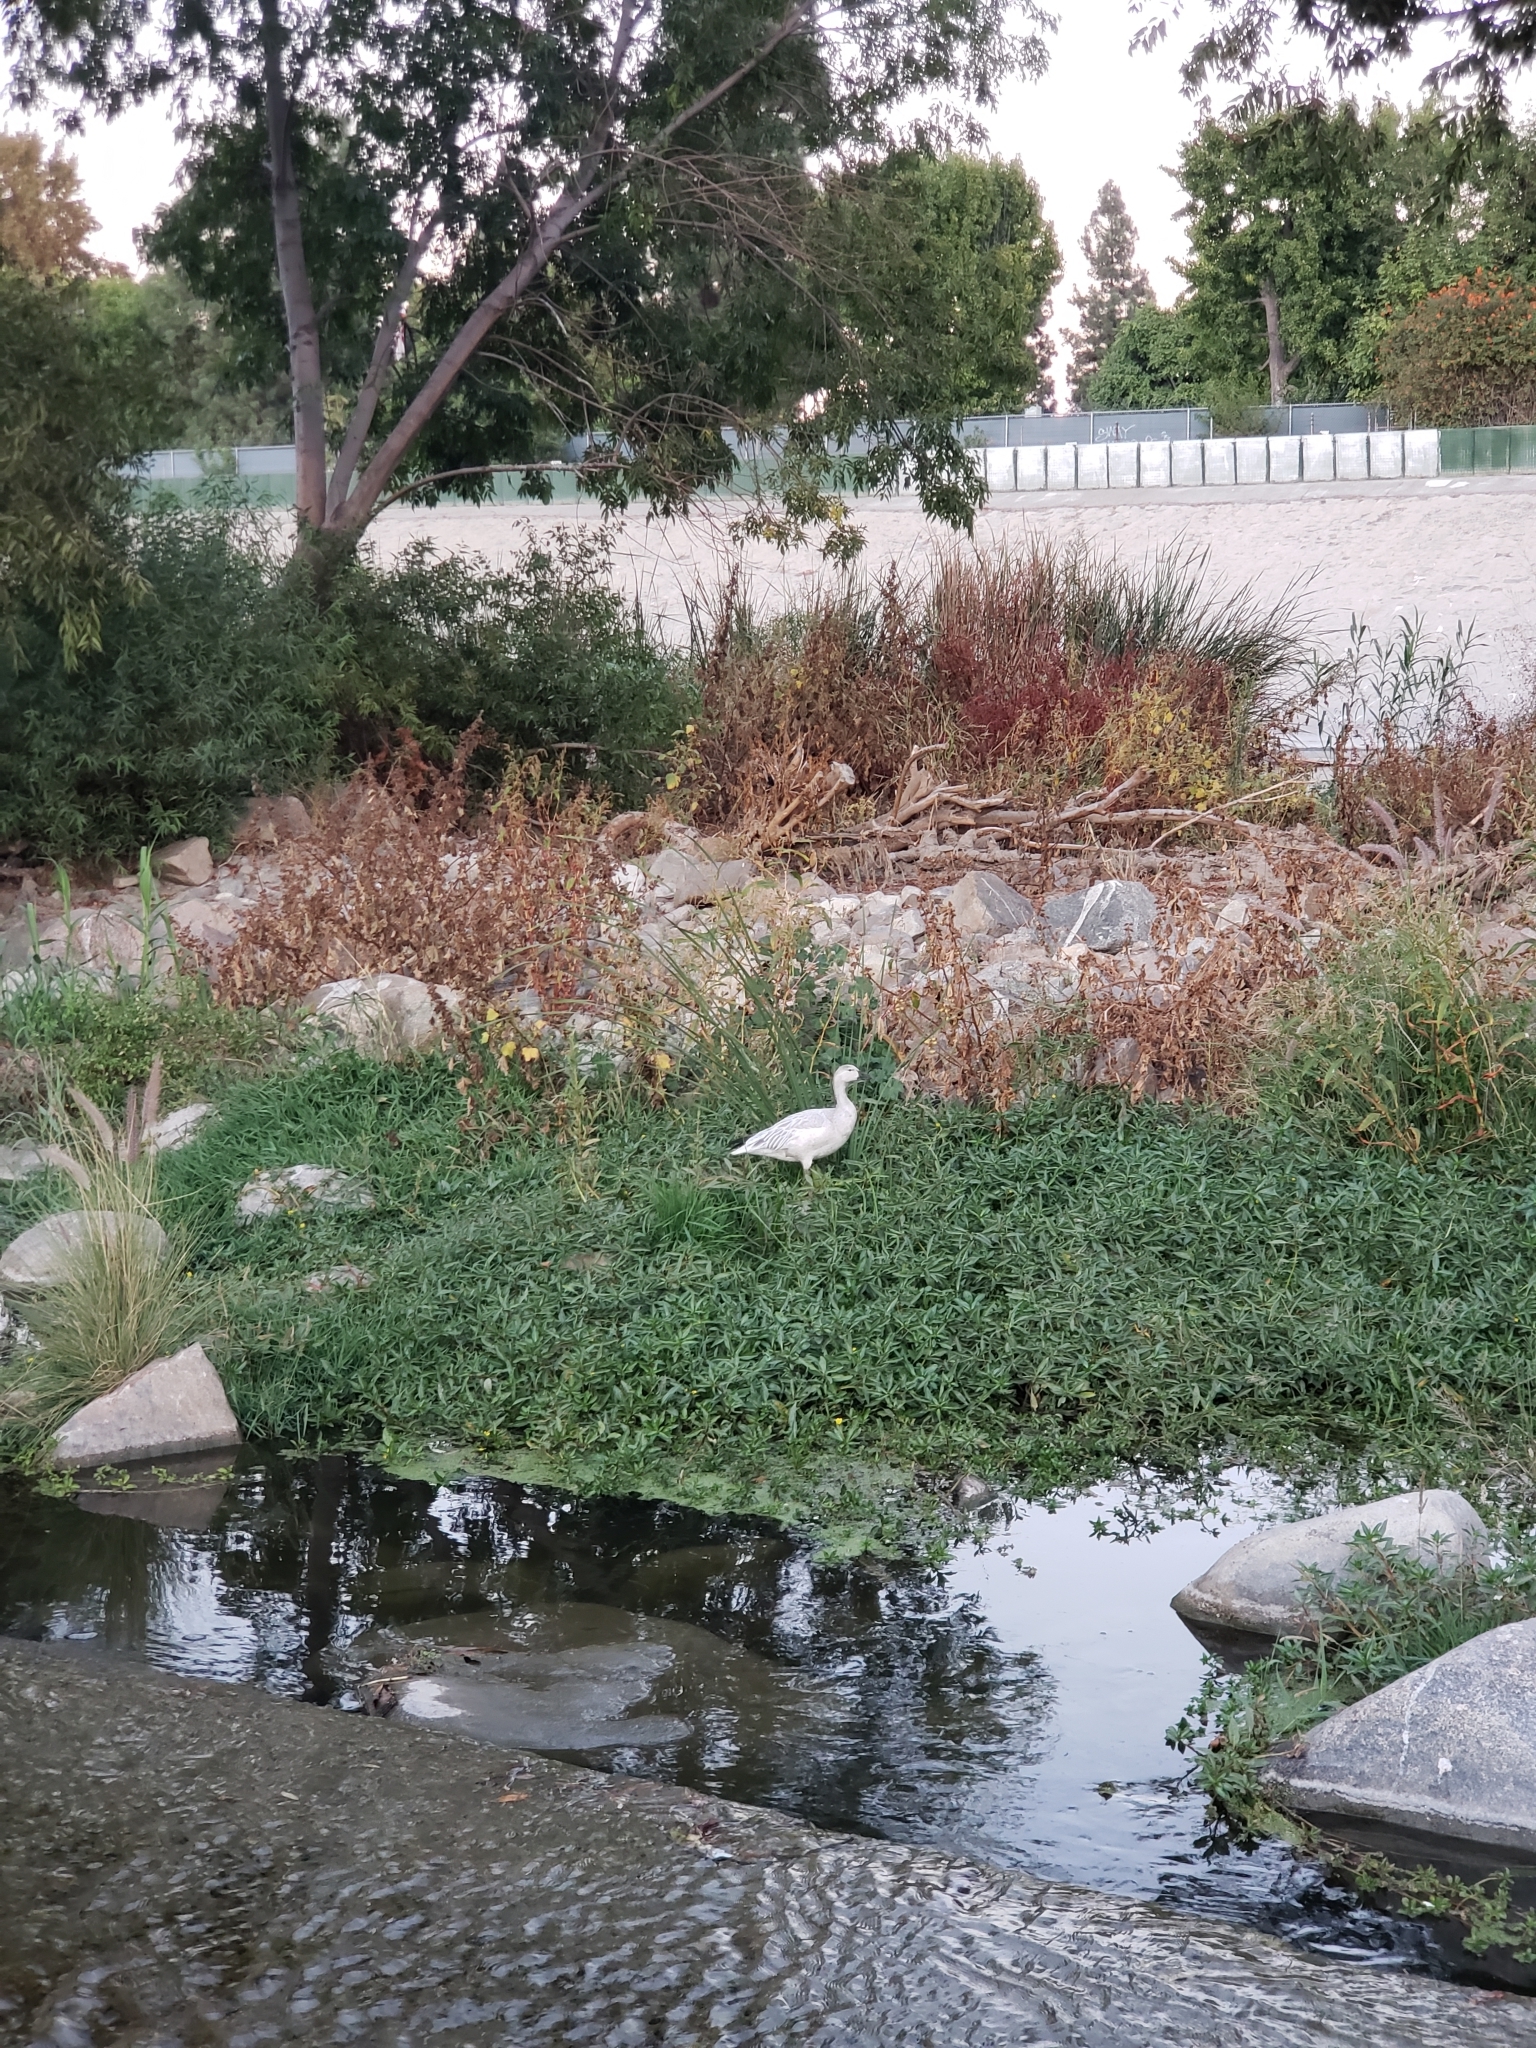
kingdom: Animalia
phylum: Chordata
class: Aves
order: Anseriformes
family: Anatidae
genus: Anser
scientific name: Anser caerulescens
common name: Snow goose
